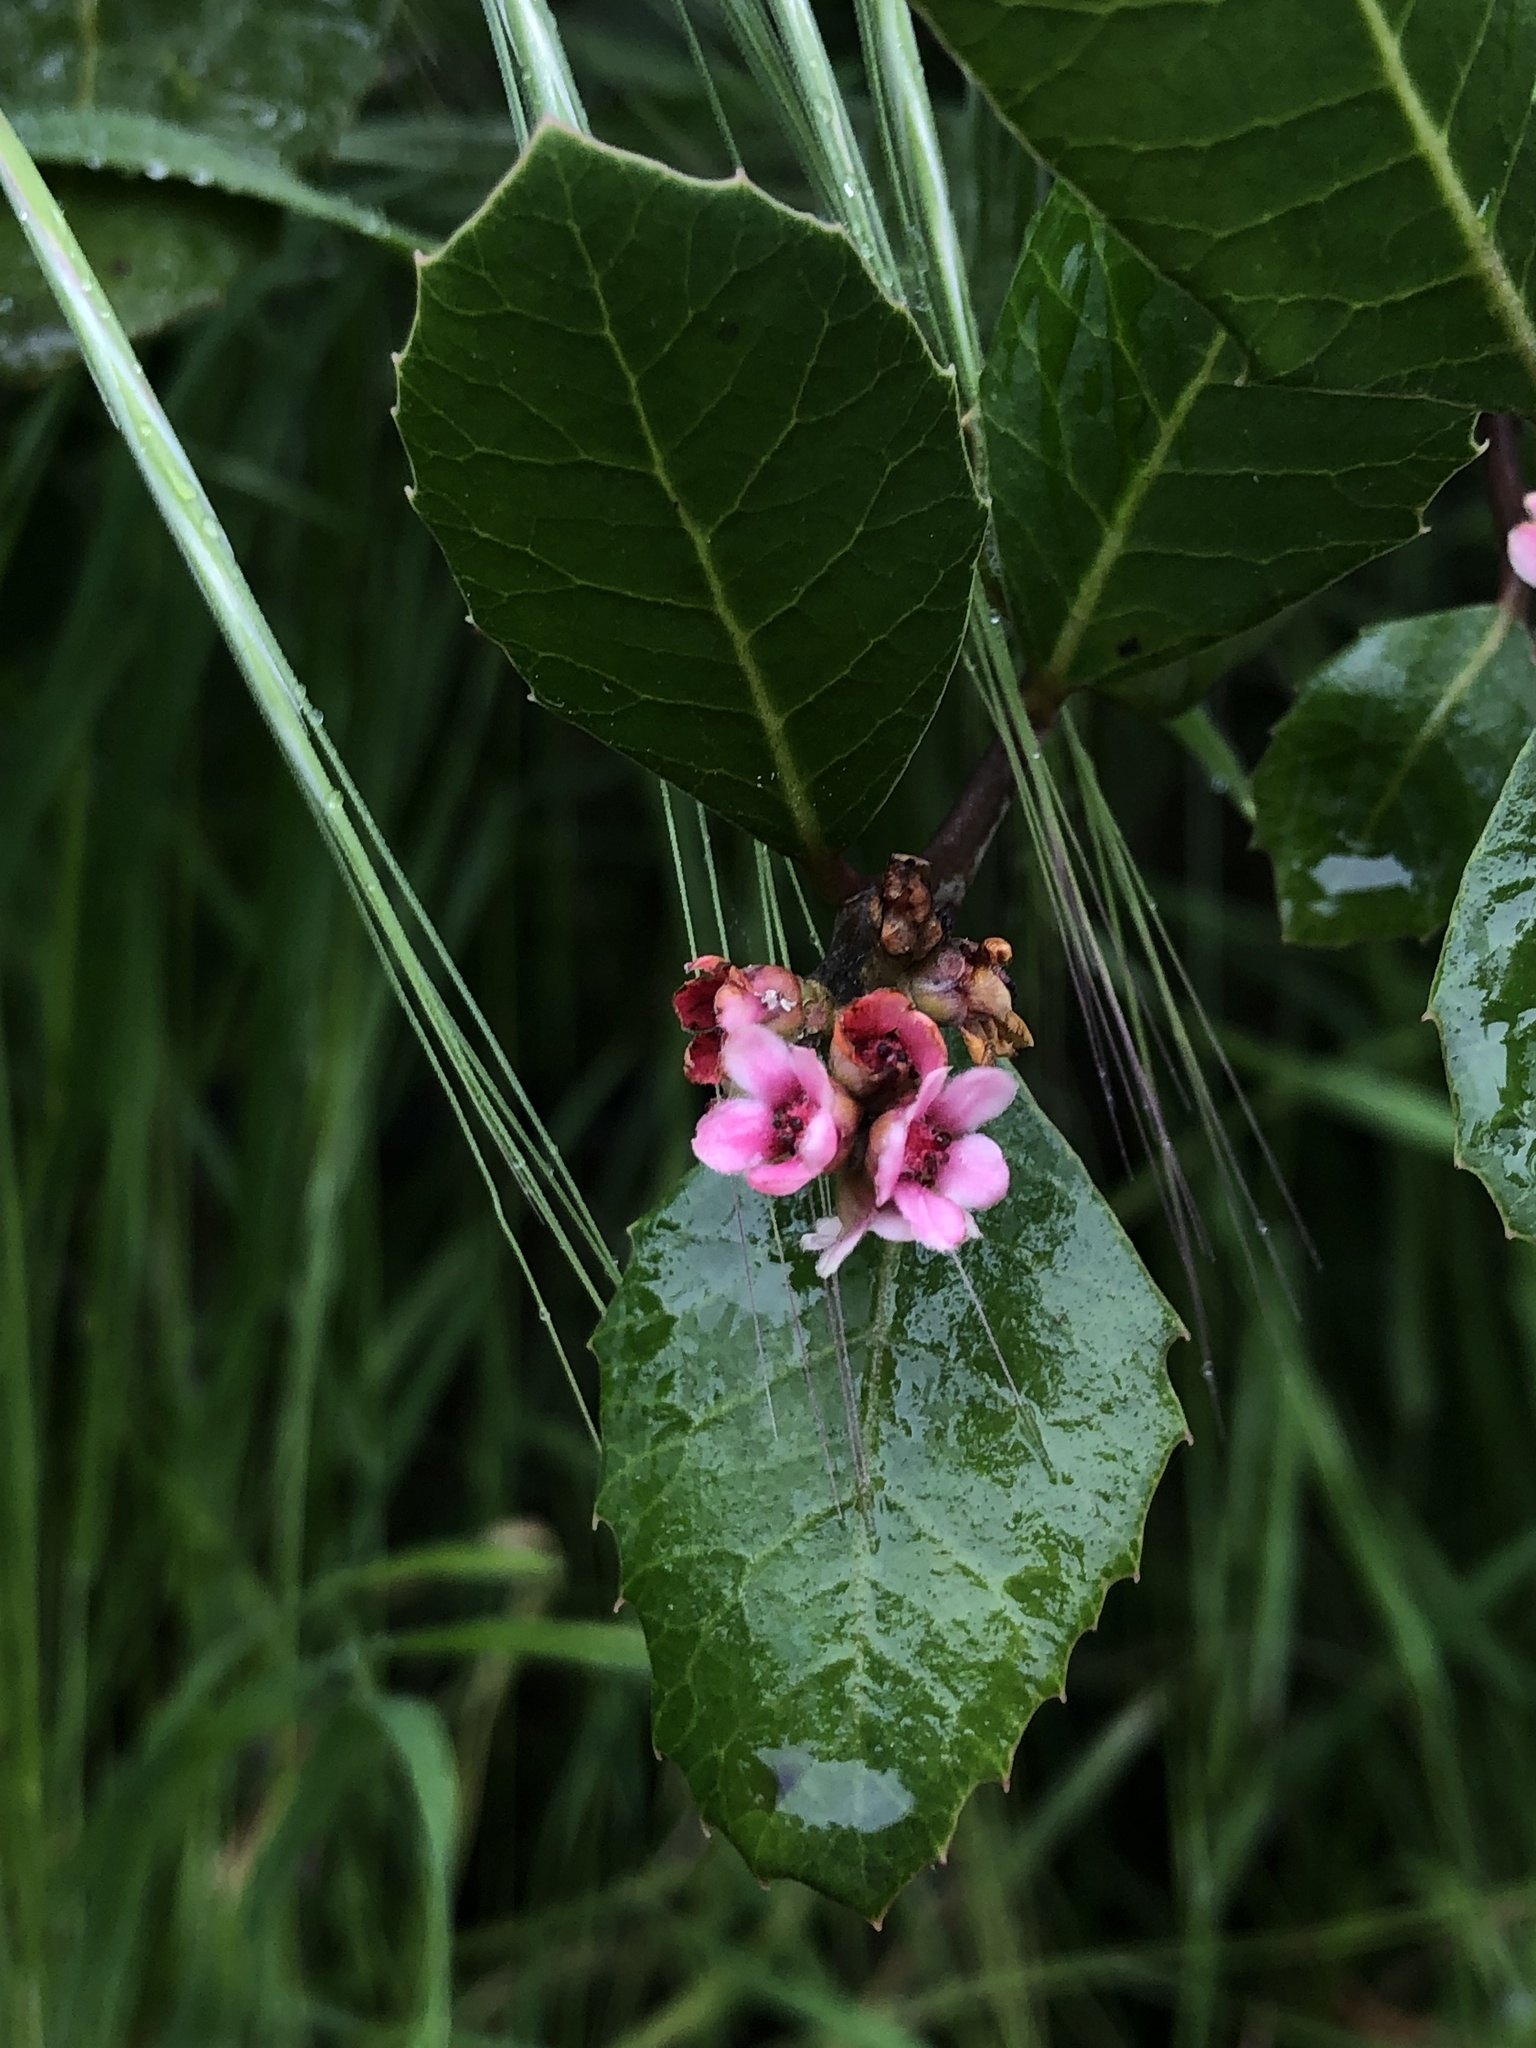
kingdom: Plantae
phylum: Tracheophyta
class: Magnoliopsida
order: Sapindales
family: Anacardiaceae
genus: Rhus
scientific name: Rhus integrifolia
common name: Lemonade sumac
